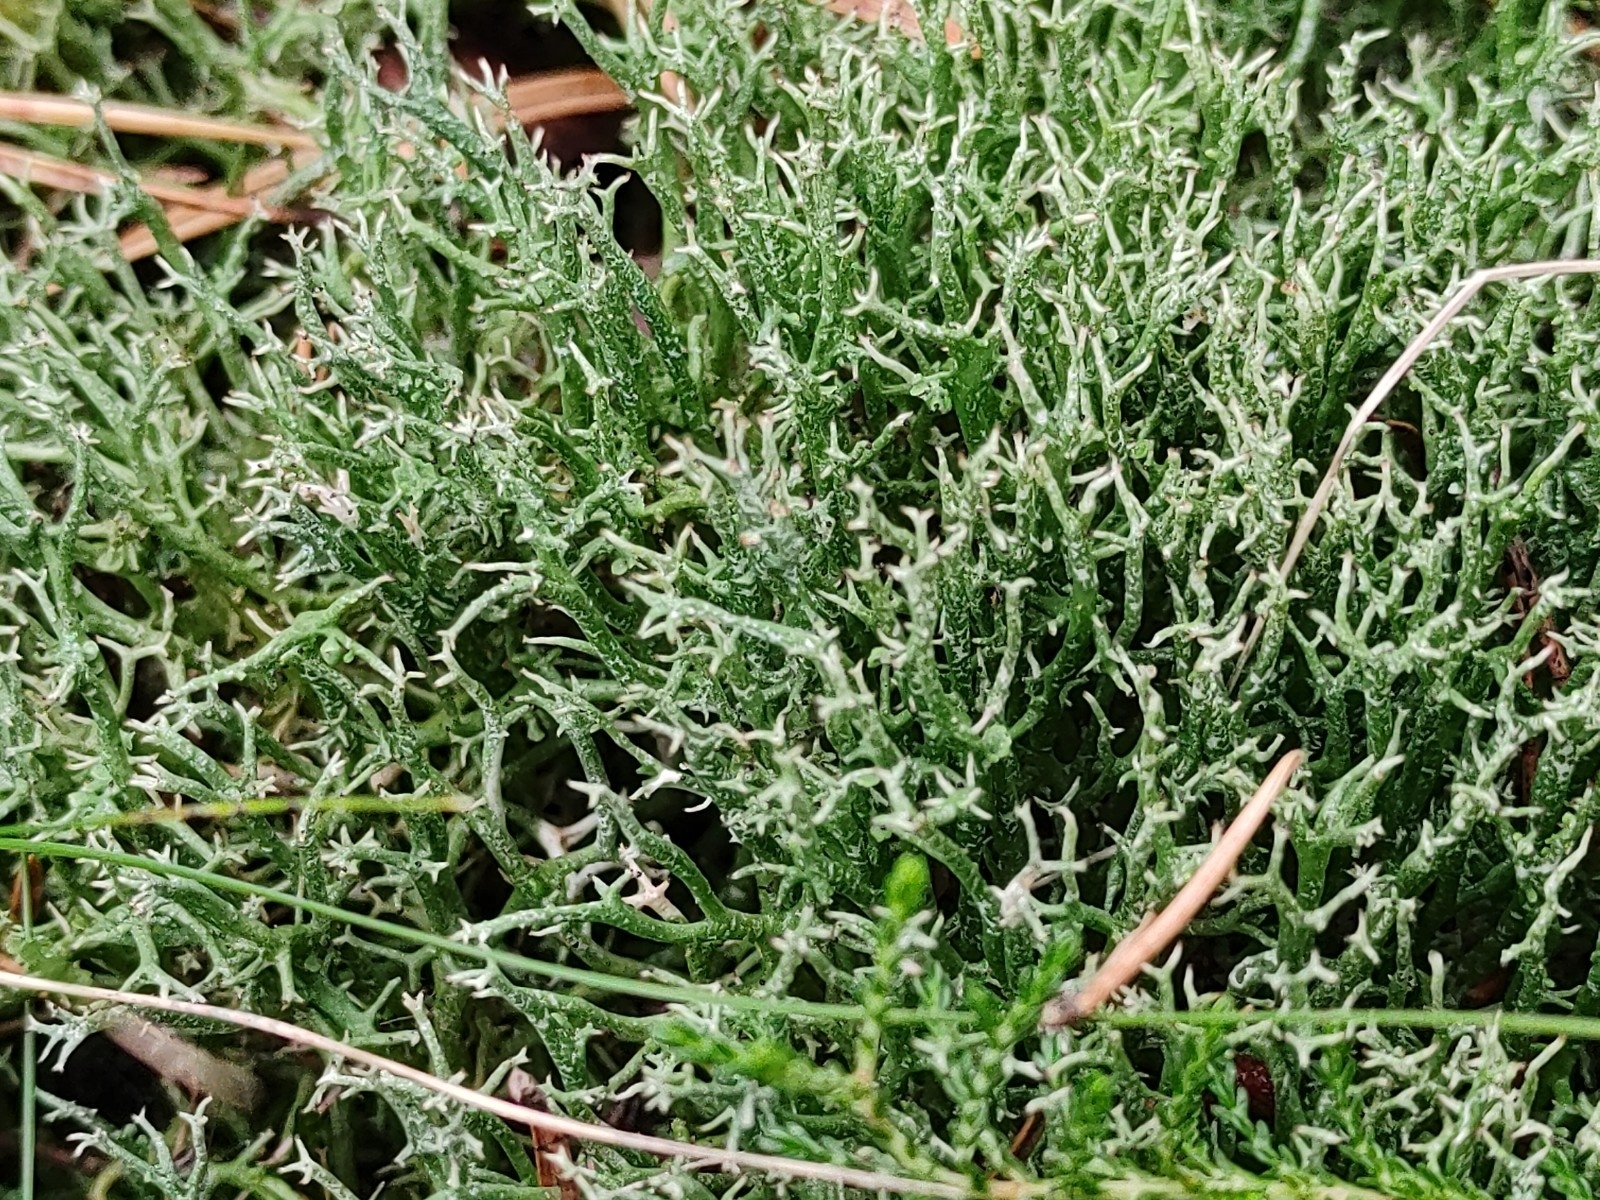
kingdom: Fungi
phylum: Ascomycota
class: Lecanoromycetes
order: Lecanorales
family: Cladoniaceae
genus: Cladonia
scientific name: Cladonia furcata
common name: Many-forked cladonia
